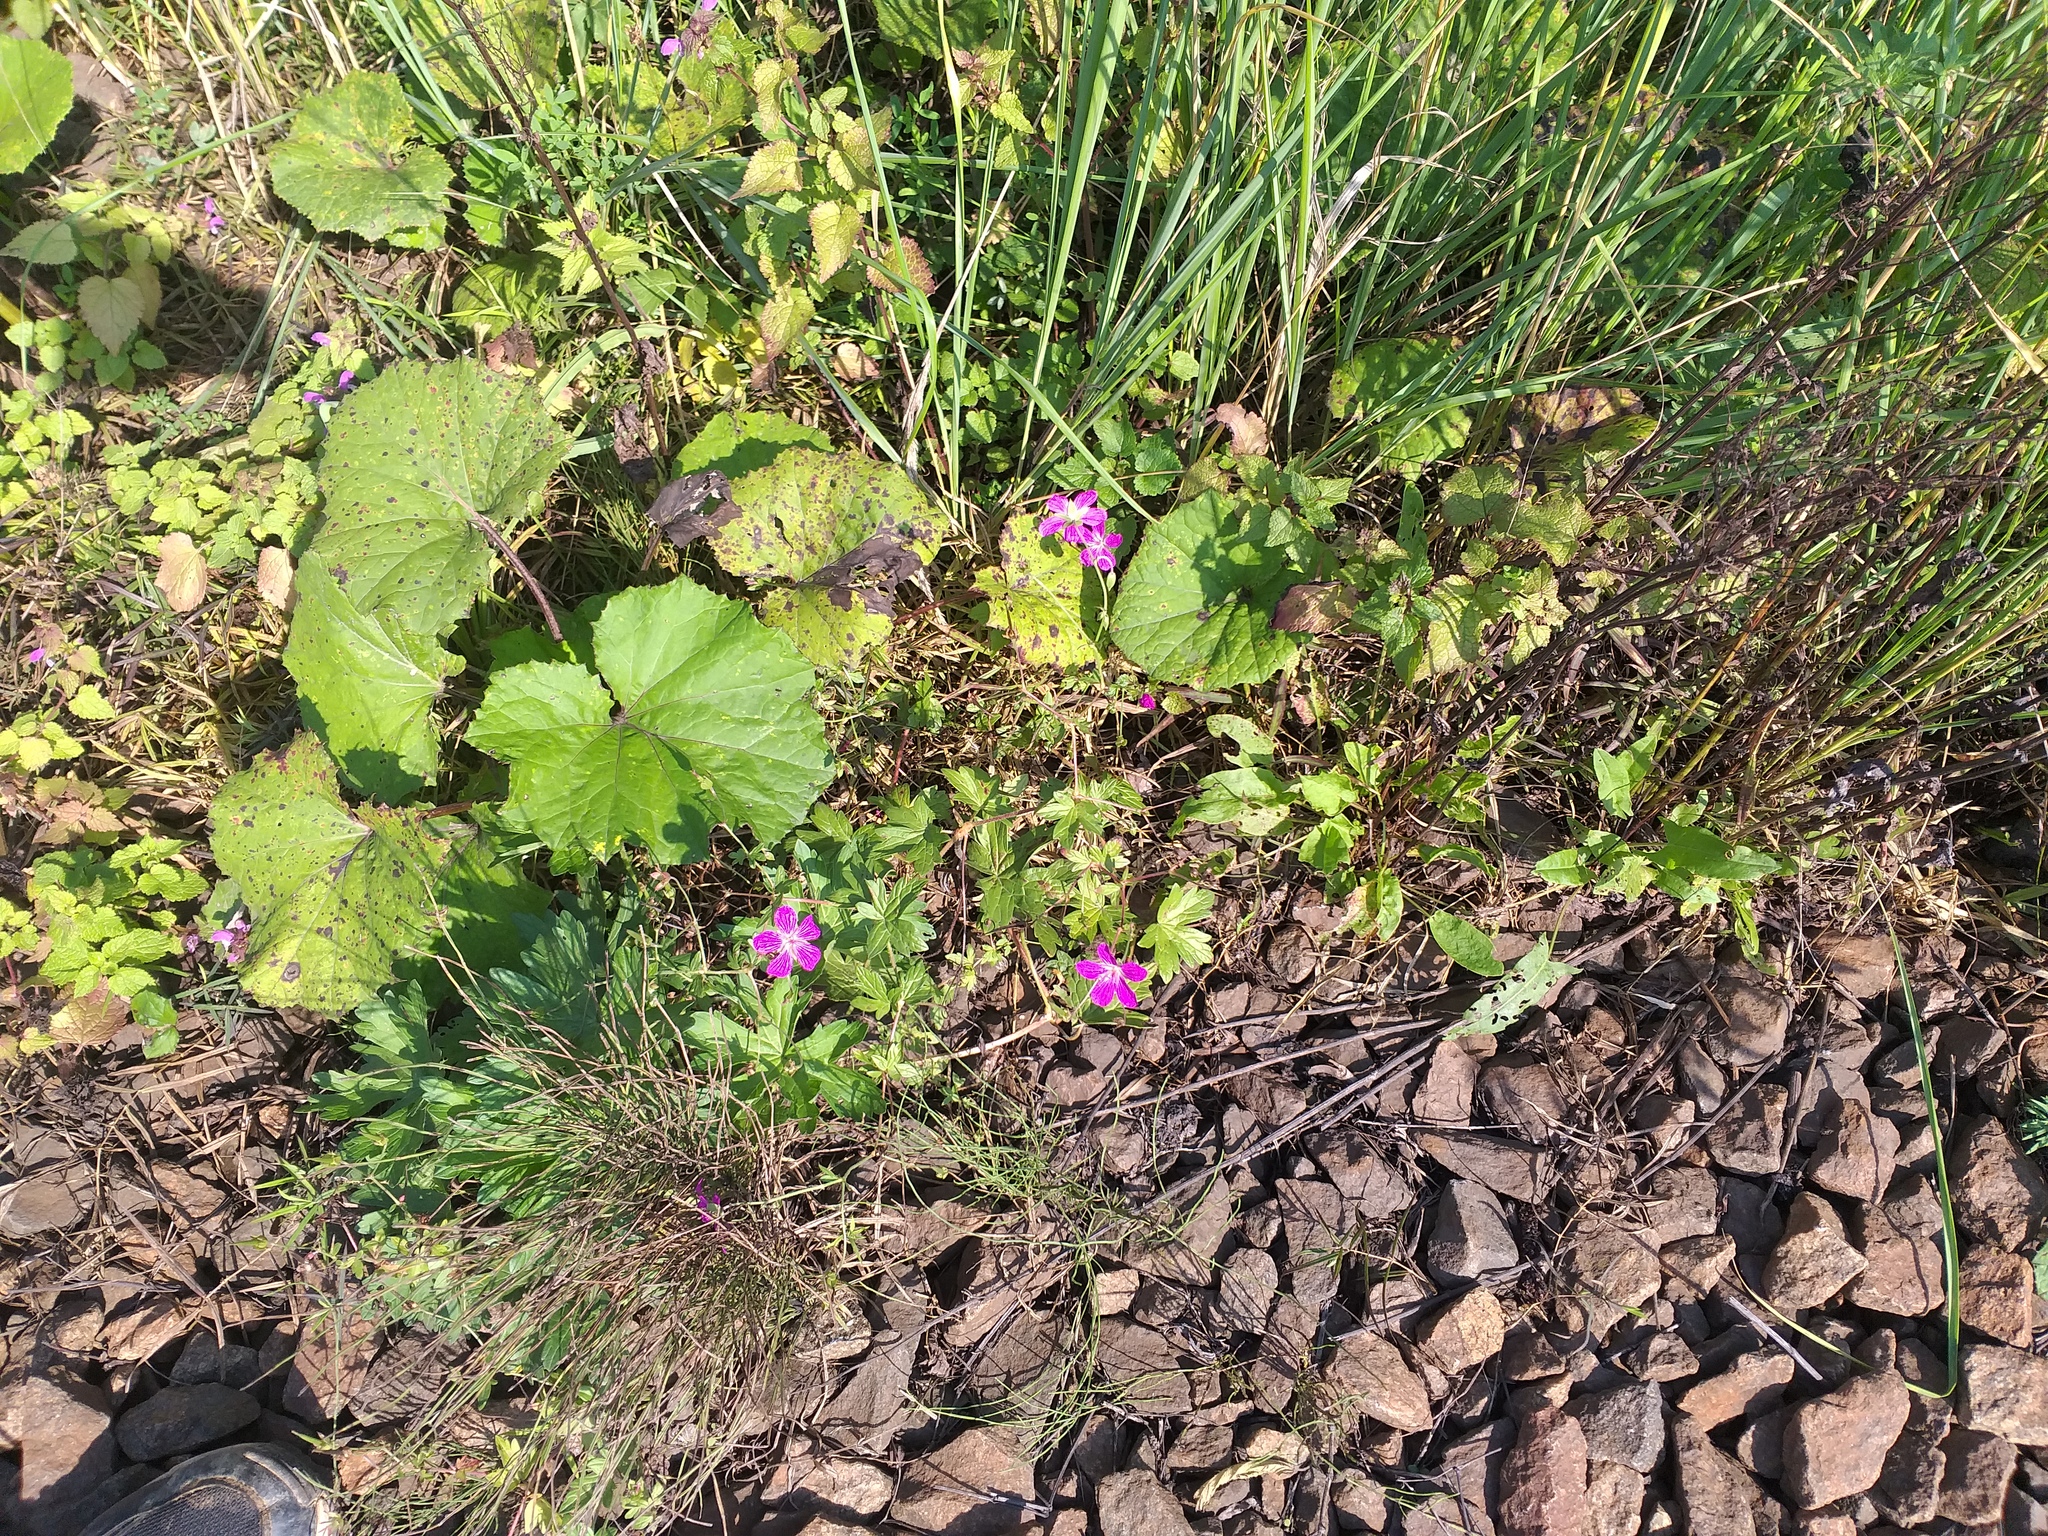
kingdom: Plantae
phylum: Tracheophyta
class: Magnoliopsida
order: Geraniales
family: Geraniaceae
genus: Geranium
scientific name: Geranium palustre
